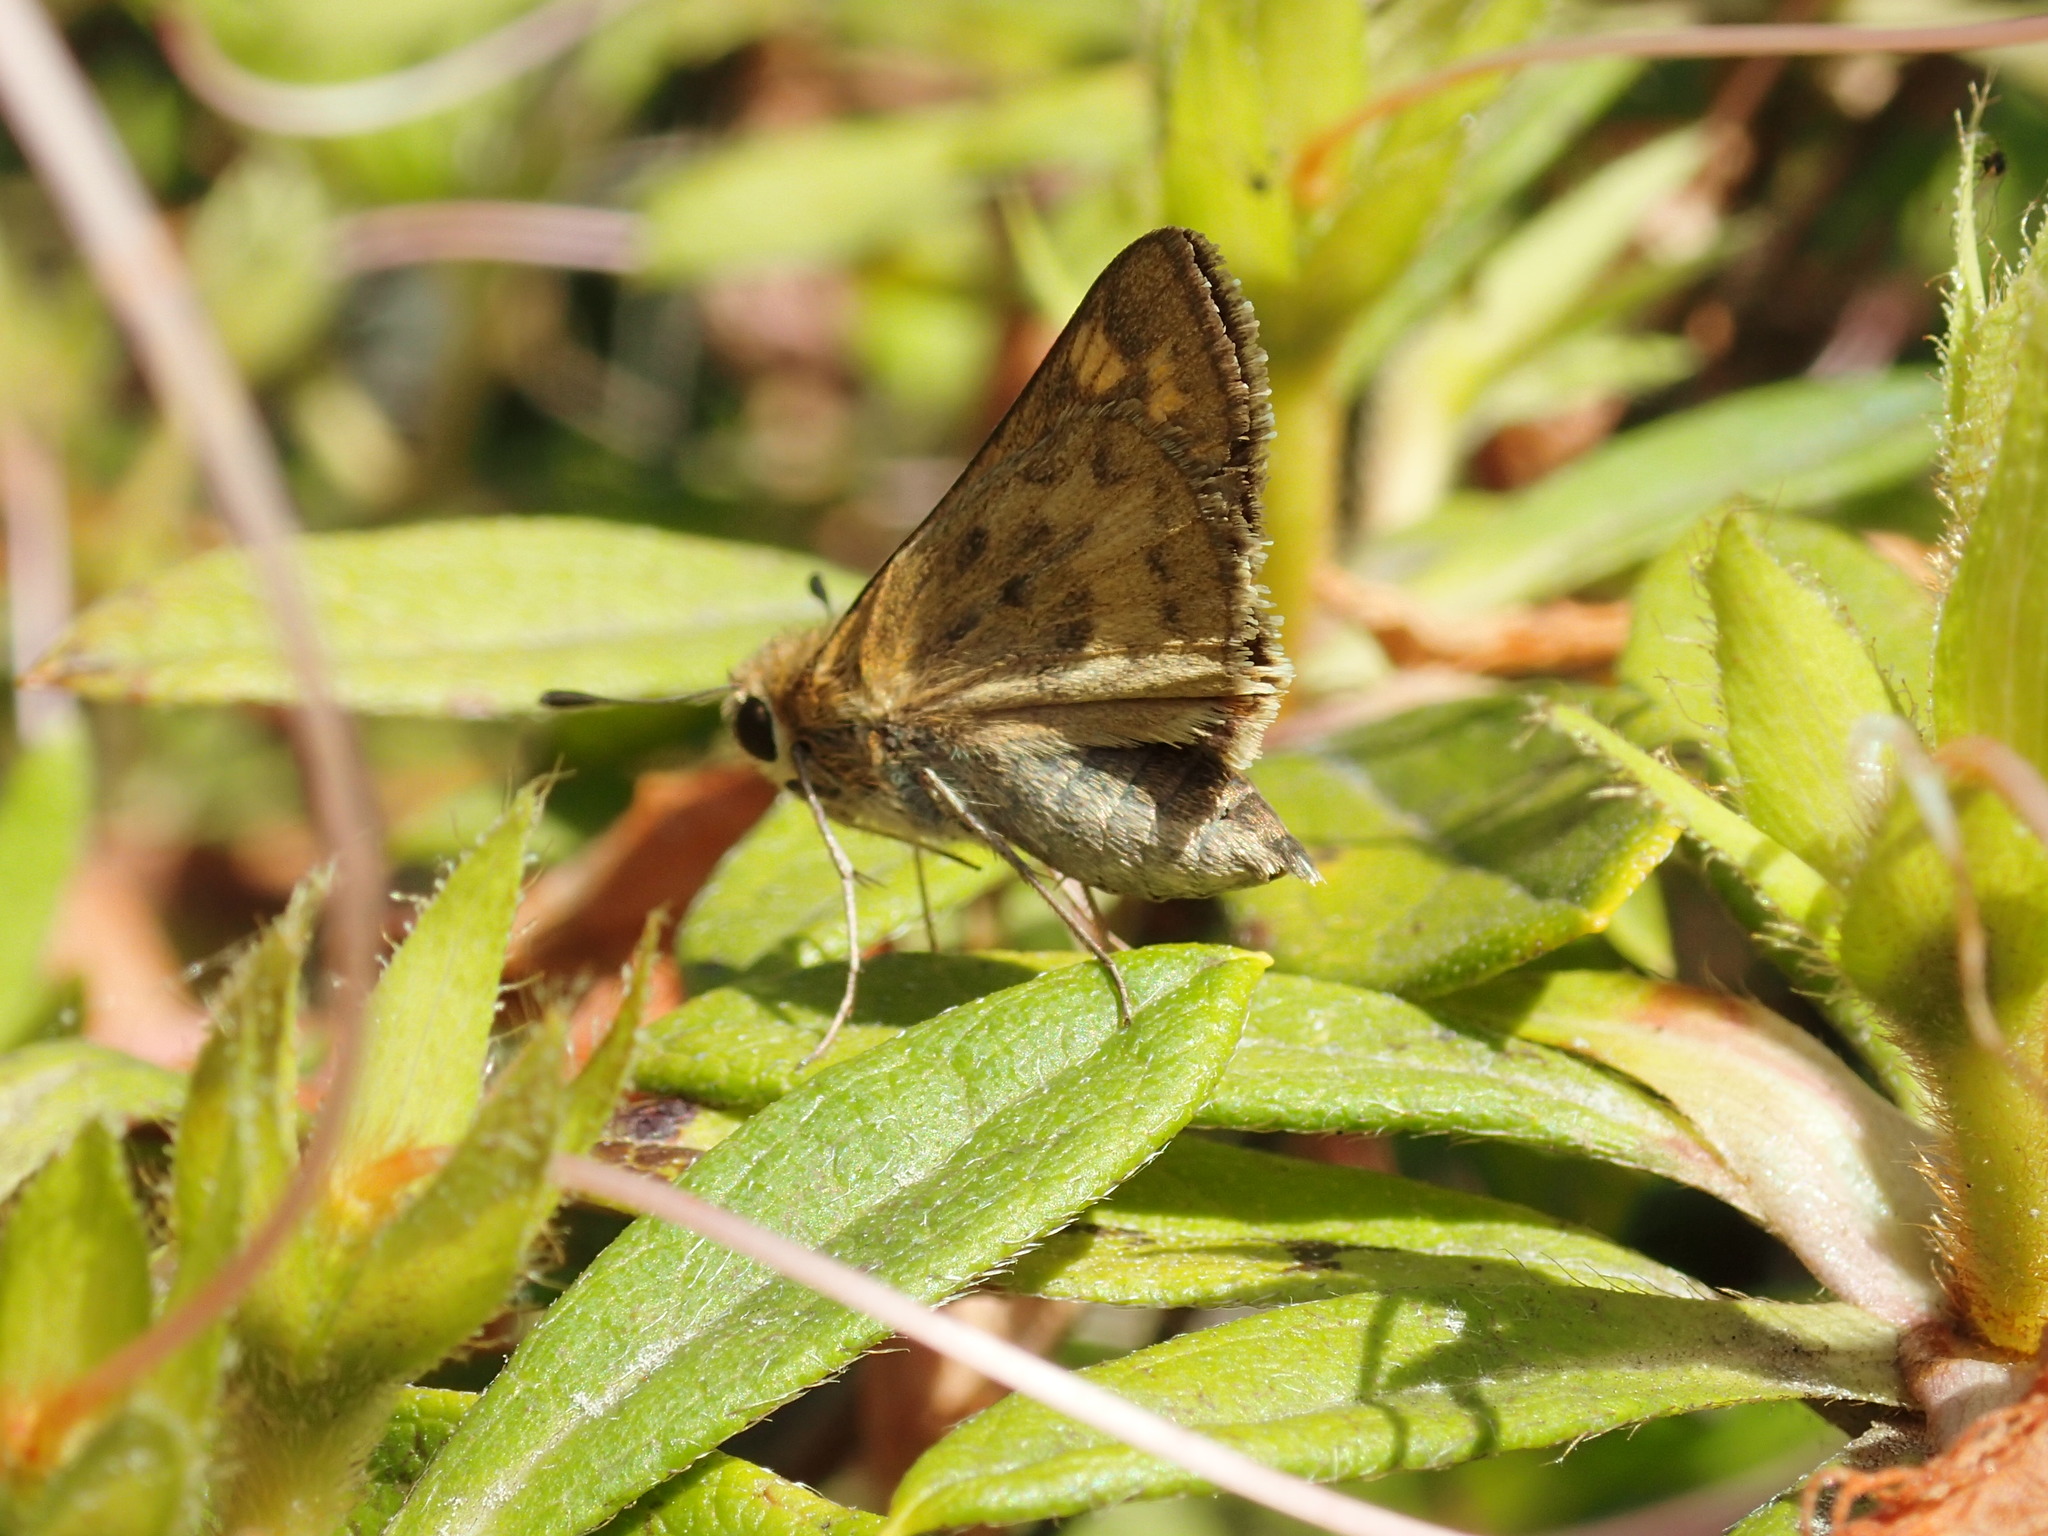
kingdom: Animalia
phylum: Arthropoda
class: Insecta
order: Lepidoptera
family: Hesperiidae
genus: Hylephila
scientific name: Hylephila phyleus
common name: Fiery skipper
